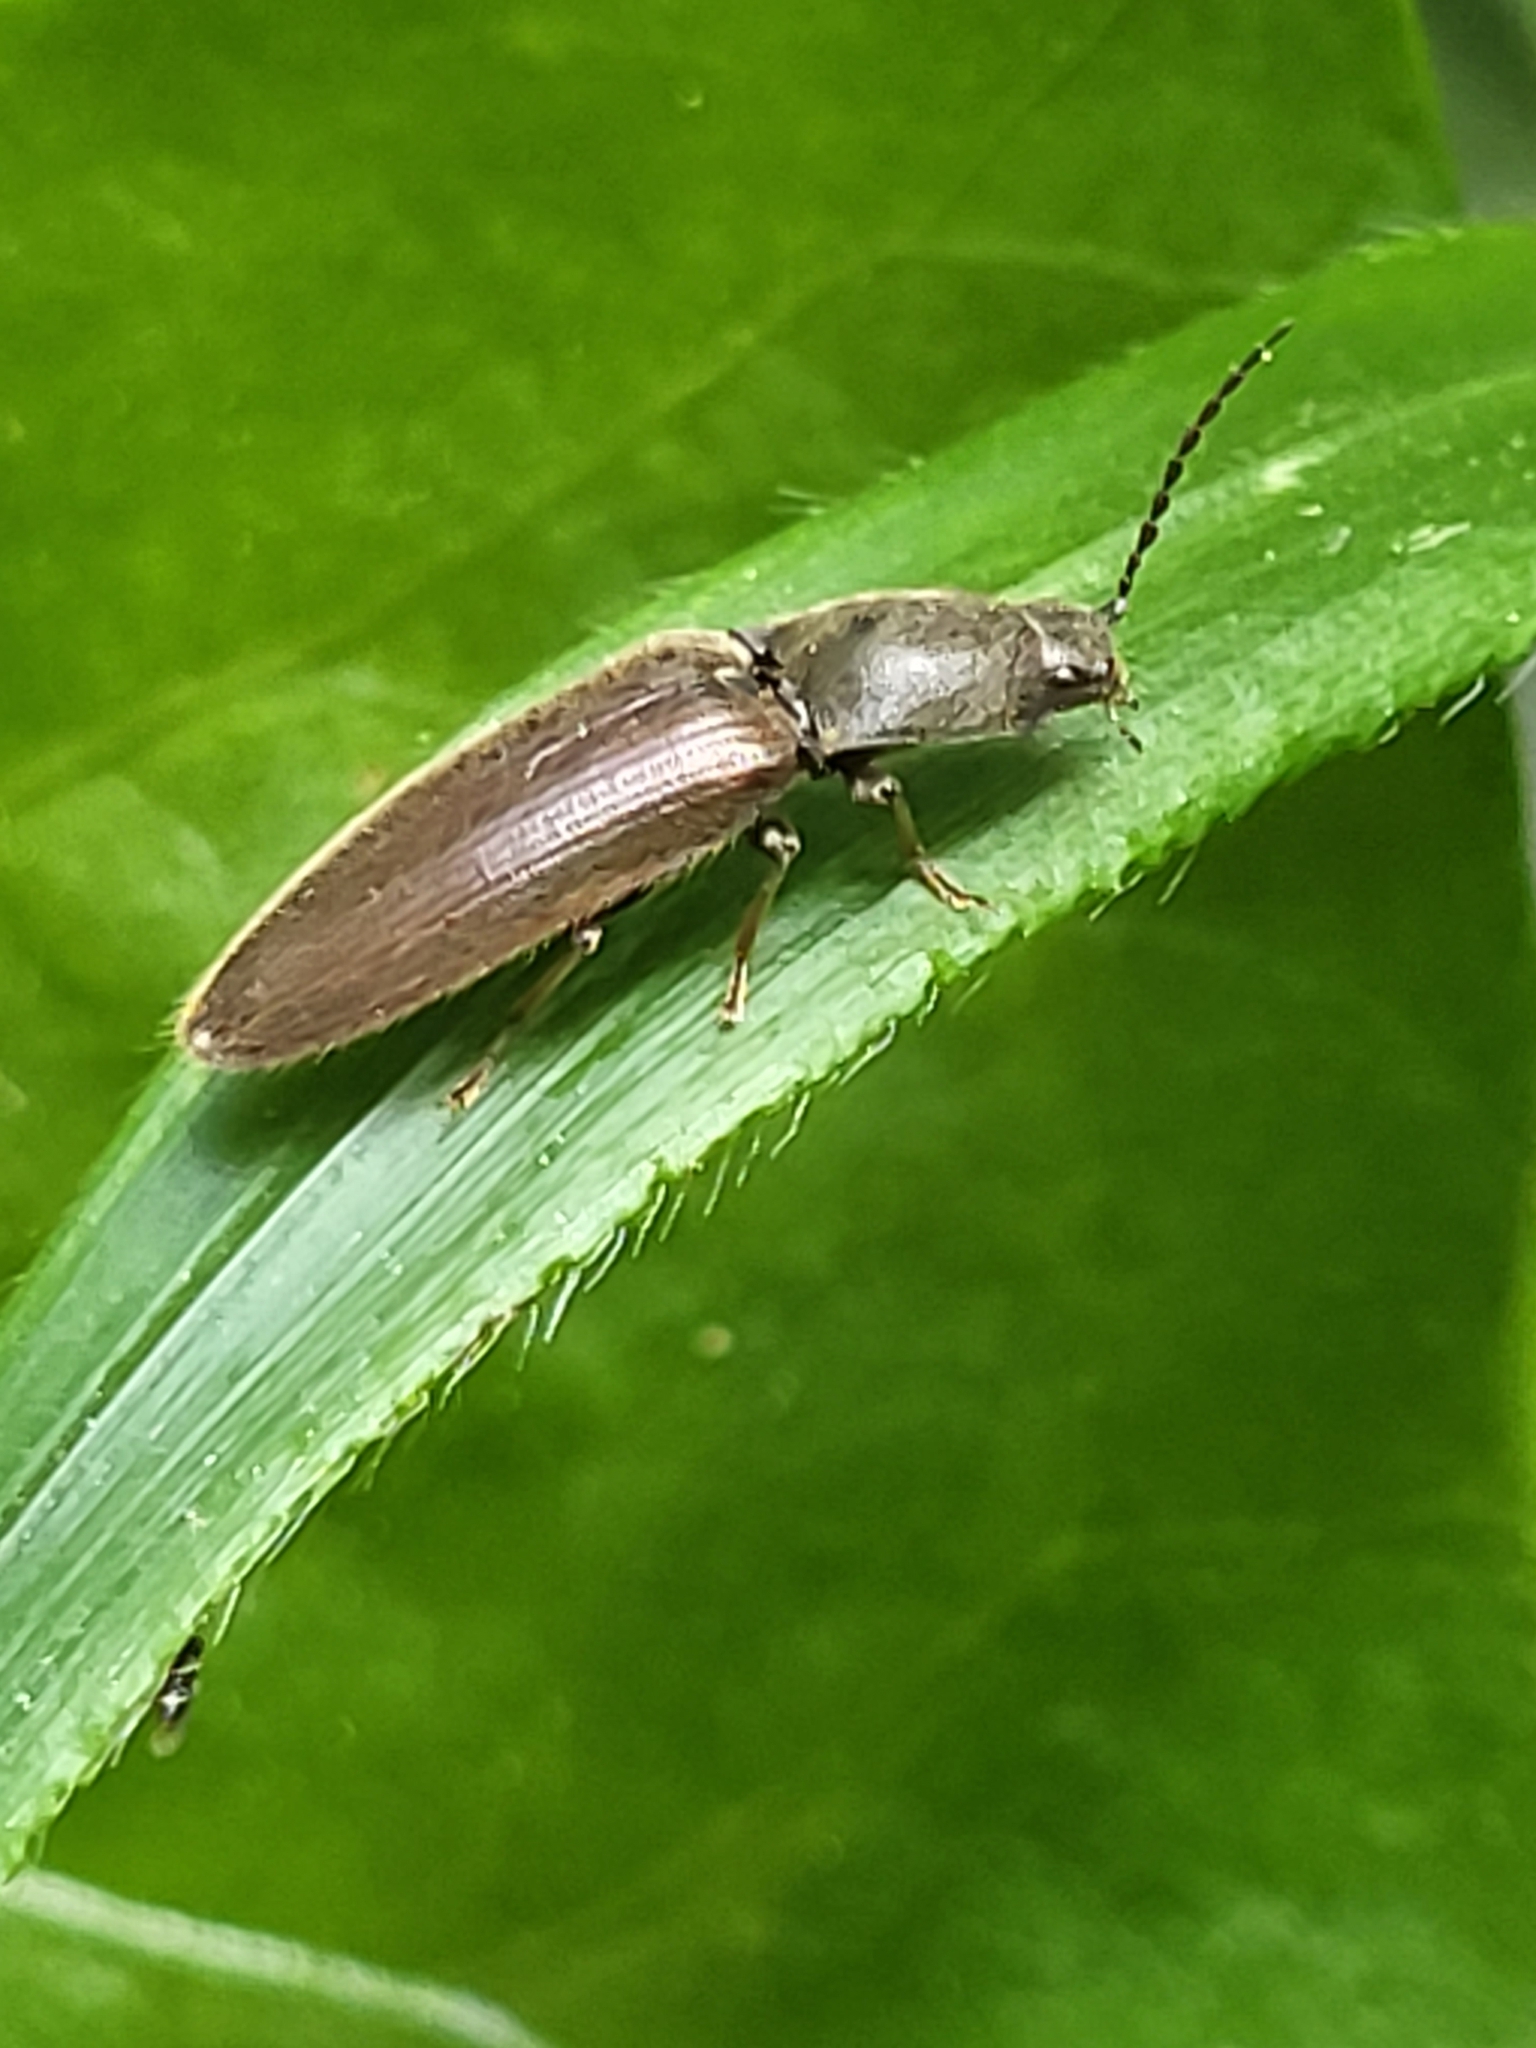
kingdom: Animalia
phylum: Arthropoda
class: Insecta
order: Coleoptera
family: Elateridae
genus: Athous
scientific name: Athous haemorrhoidalis
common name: Red-brown click beetle
